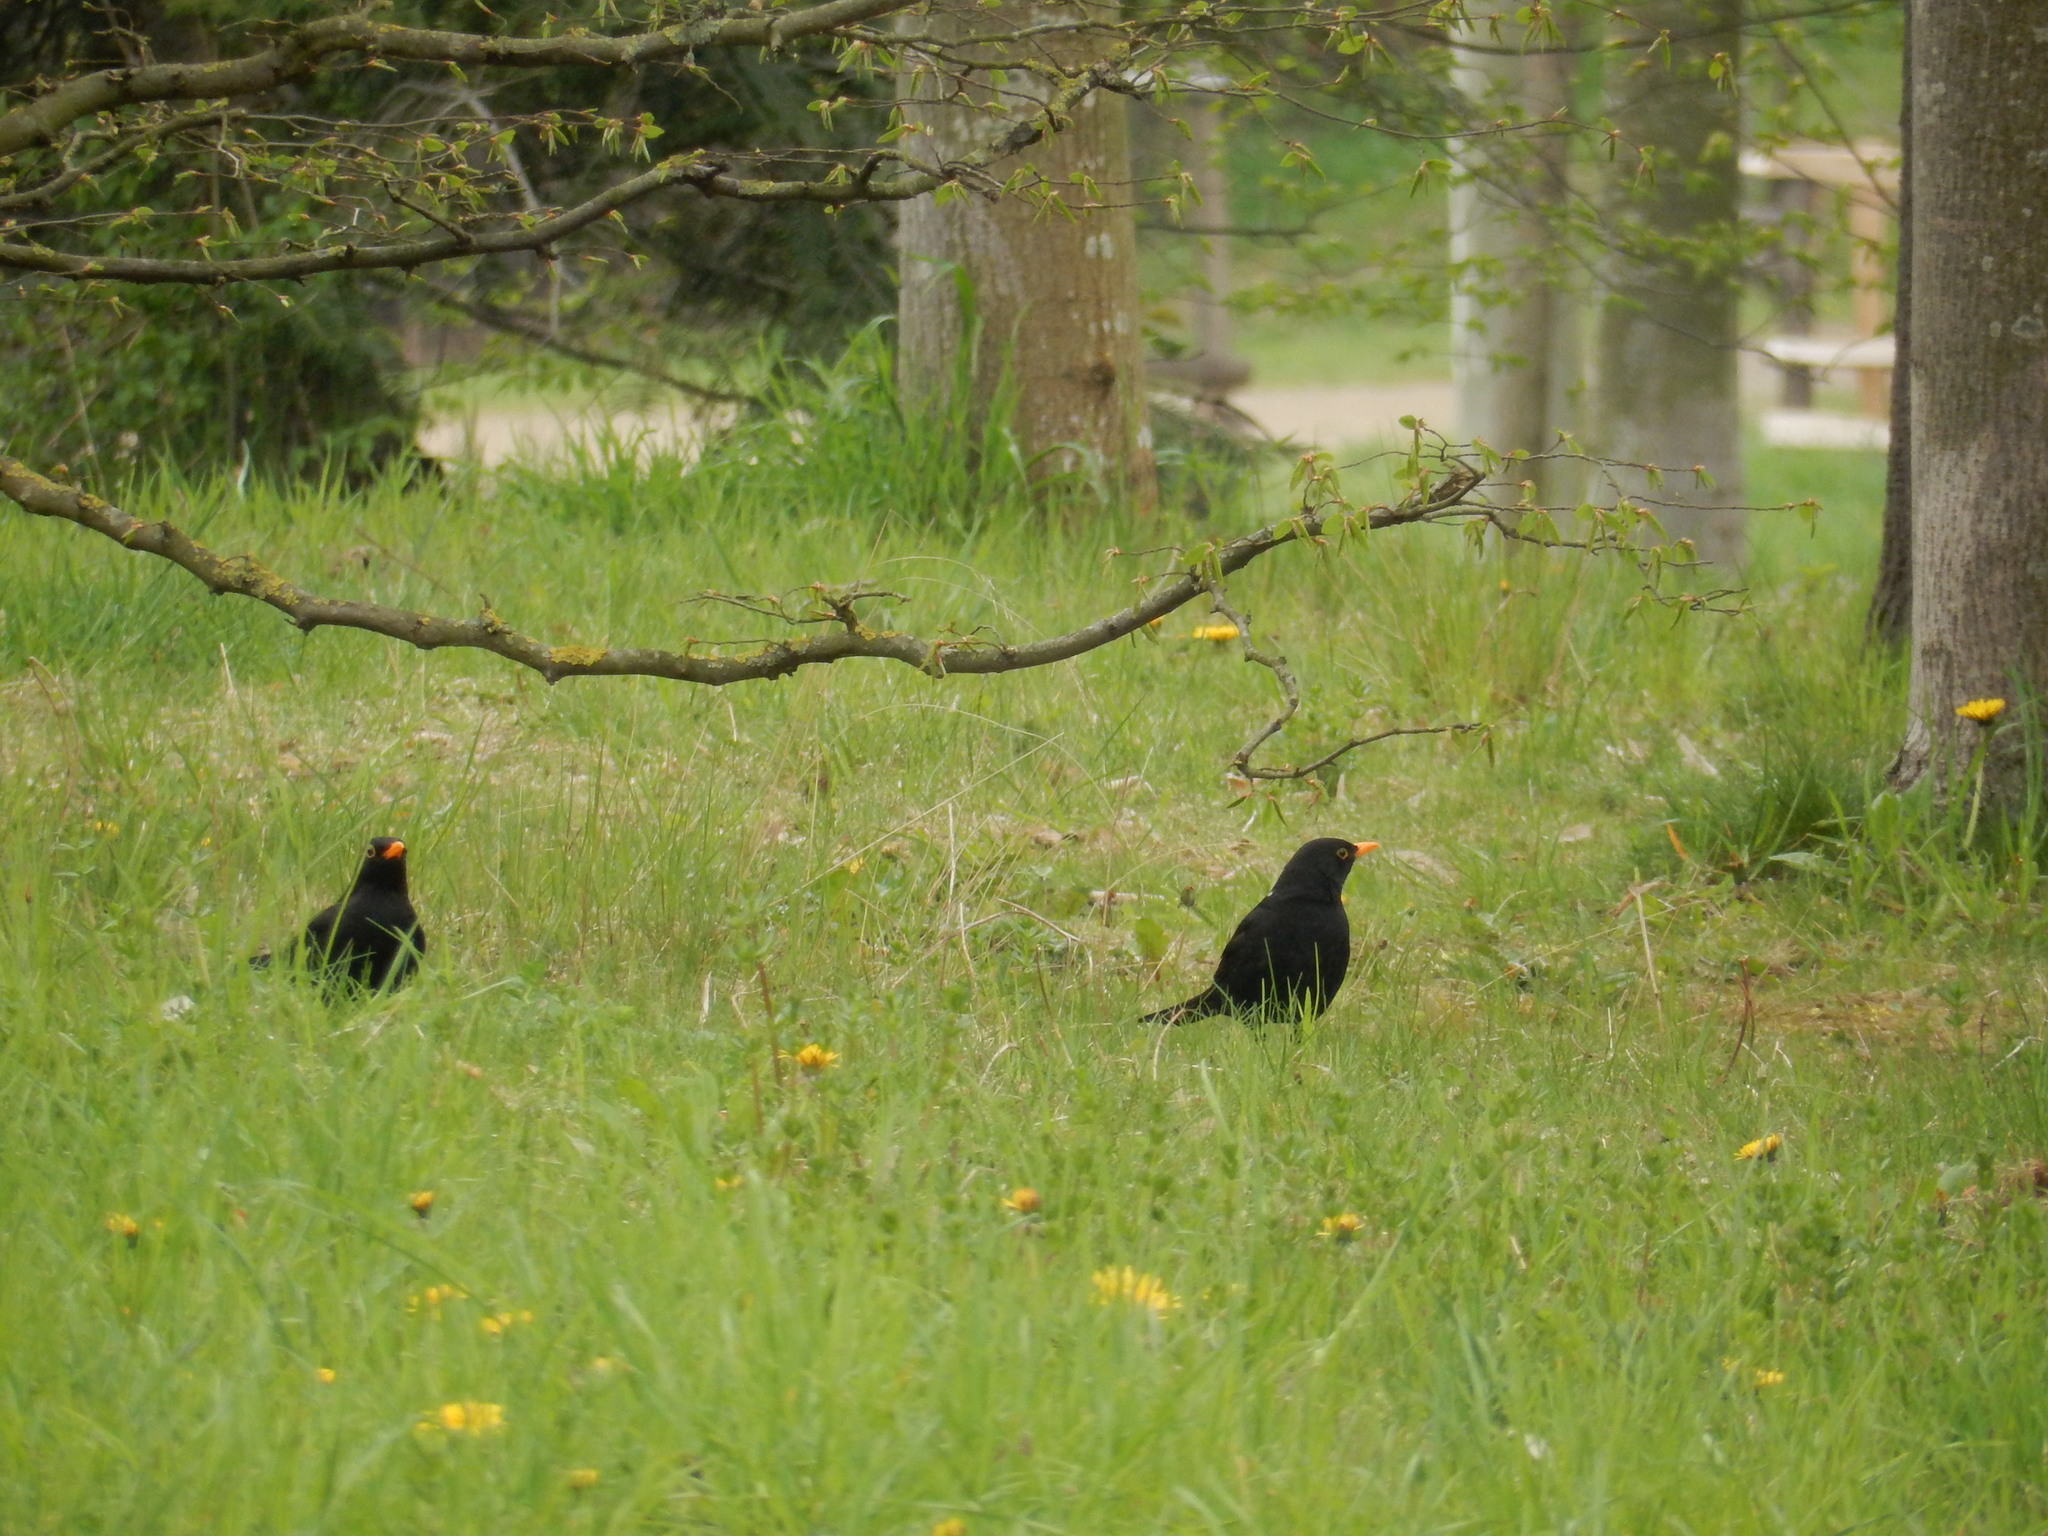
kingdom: Animalia
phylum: Chordata
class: Aves
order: Passeriformes
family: Turdidae
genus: Turdus
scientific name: Turdus merula
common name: Common blackbird
